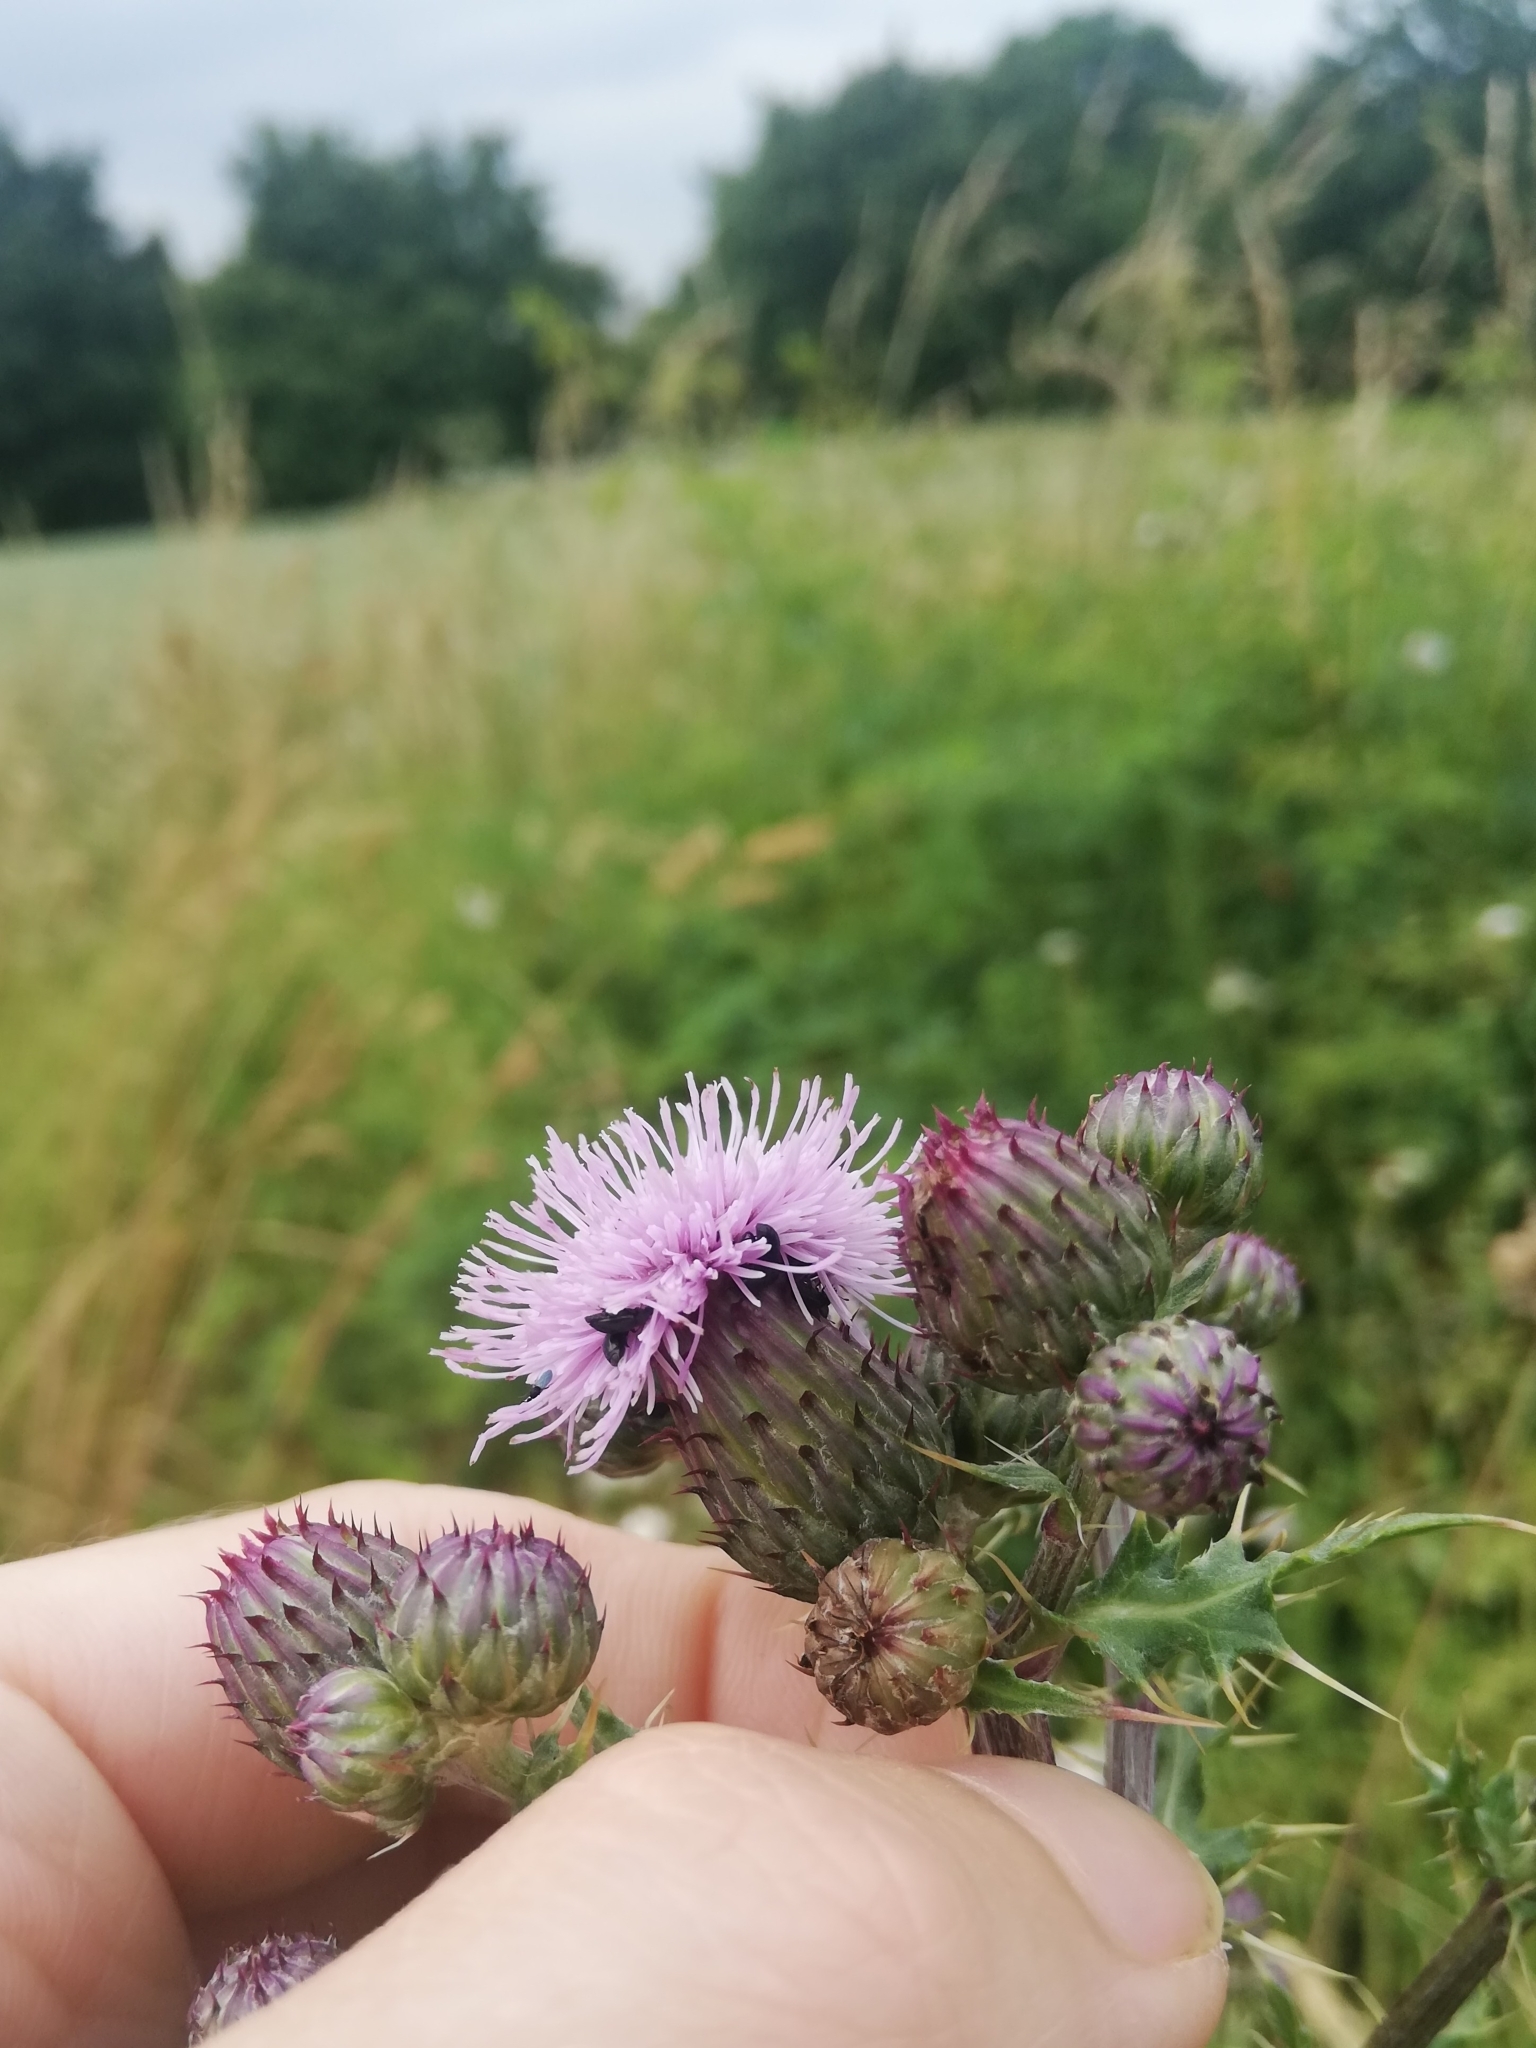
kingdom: Plantae
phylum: Tracheophyta
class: Magnoliopsida
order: Asterales
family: Asteraceae
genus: Cirsium
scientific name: Cirsium arvense
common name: Creeping thistle
